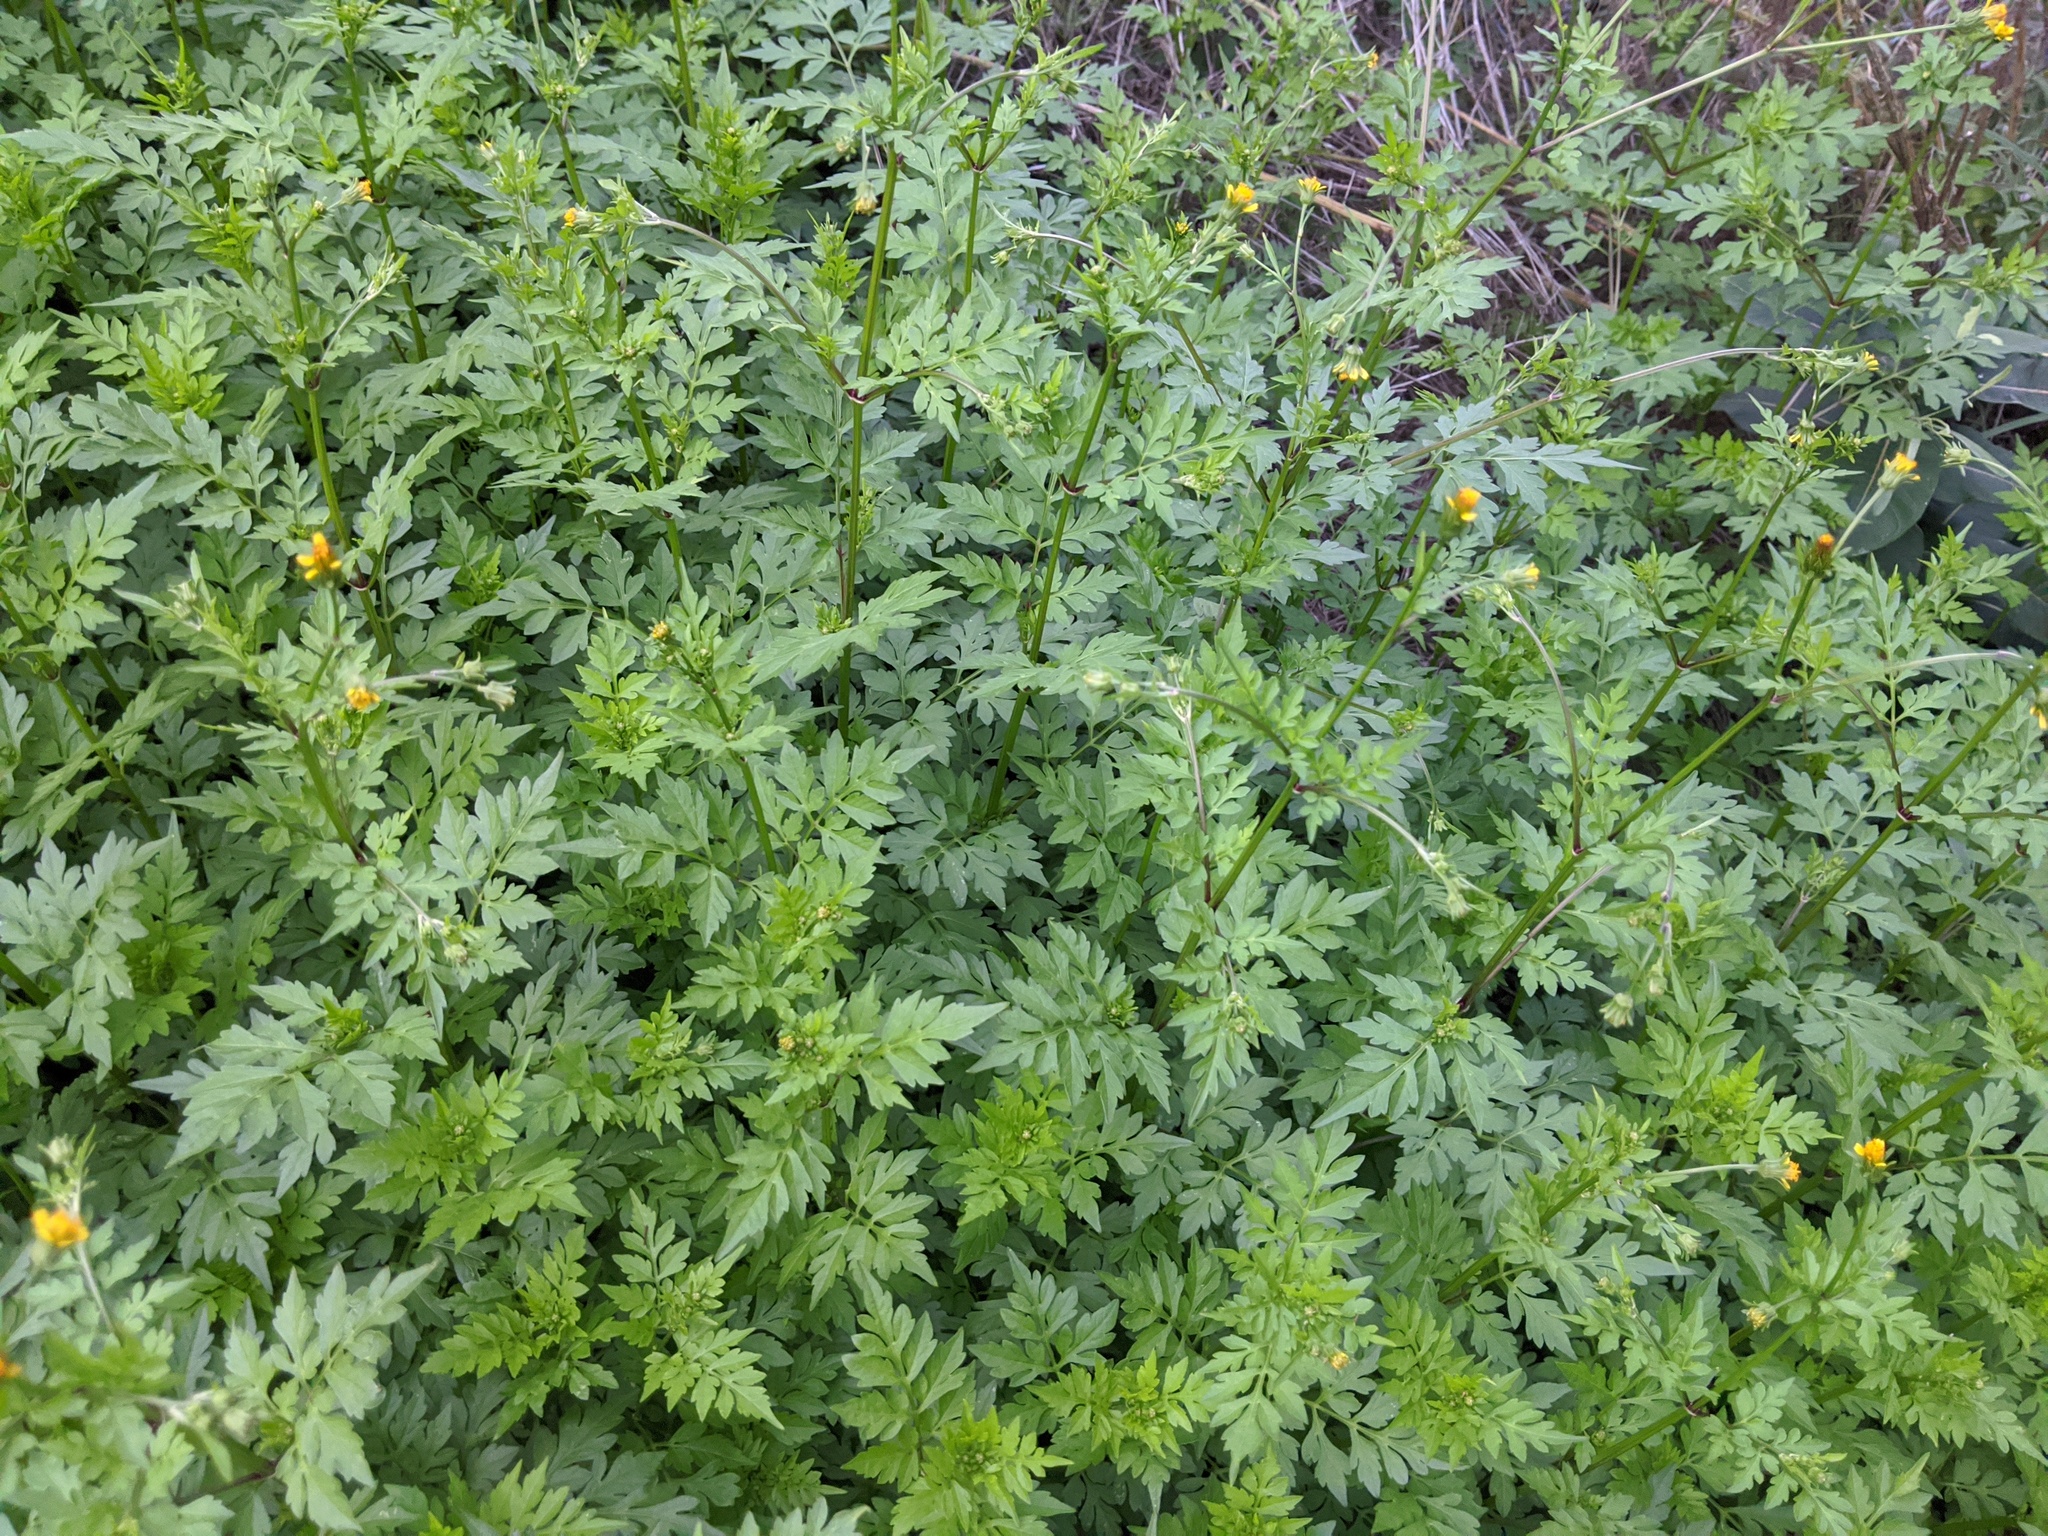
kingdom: Plantae
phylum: Tracheophyta
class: Magnoliopsida
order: Asterales
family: Asteraceae
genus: Bidens
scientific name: Bidens bipinnata
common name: Spanish-needles
